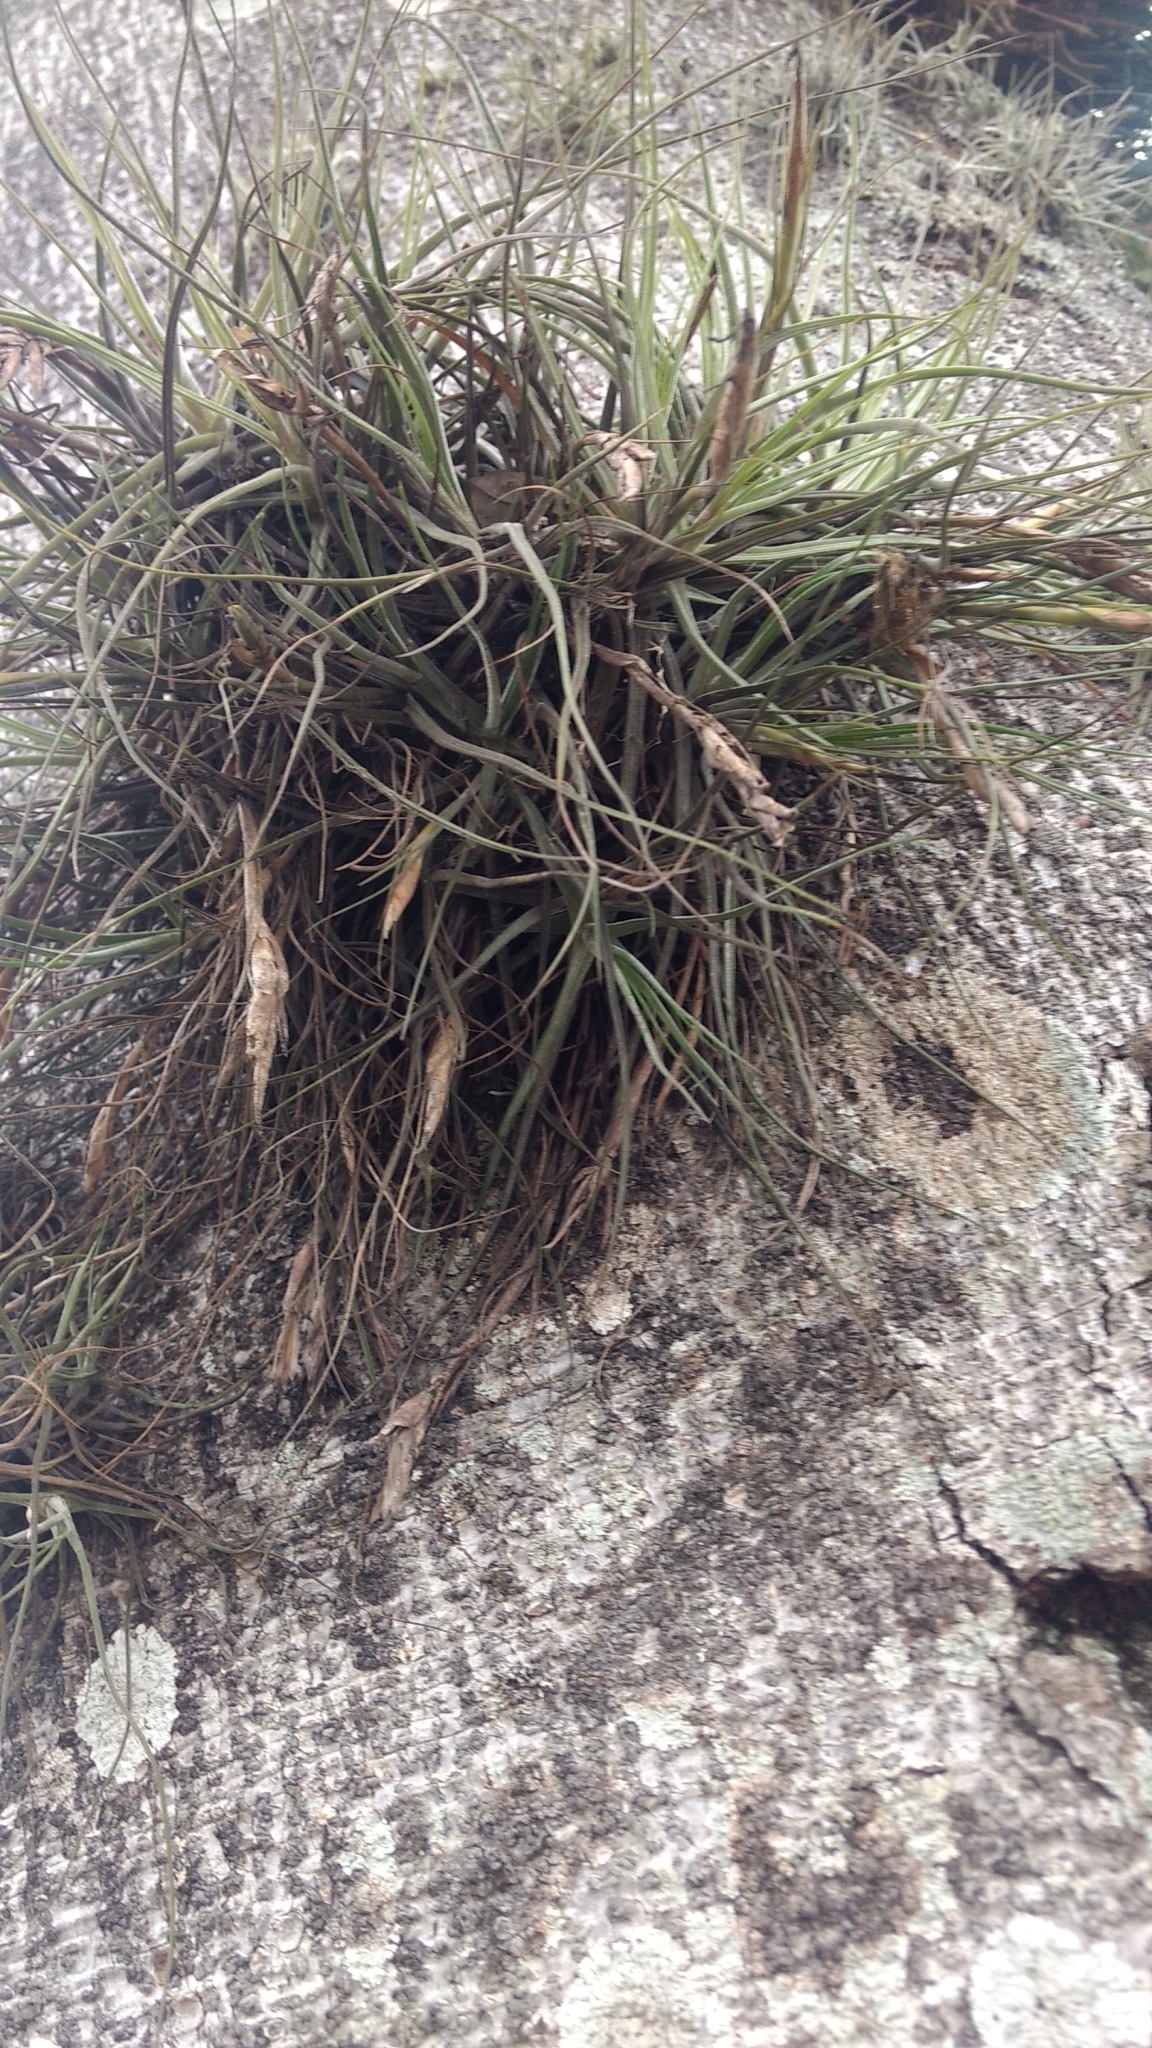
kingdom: Plantae
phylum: Tracheophyta
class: Liliopsida
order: Poales
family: Bromeliaceae
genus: Tillandsia
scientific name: Tillandsia schiedeana
